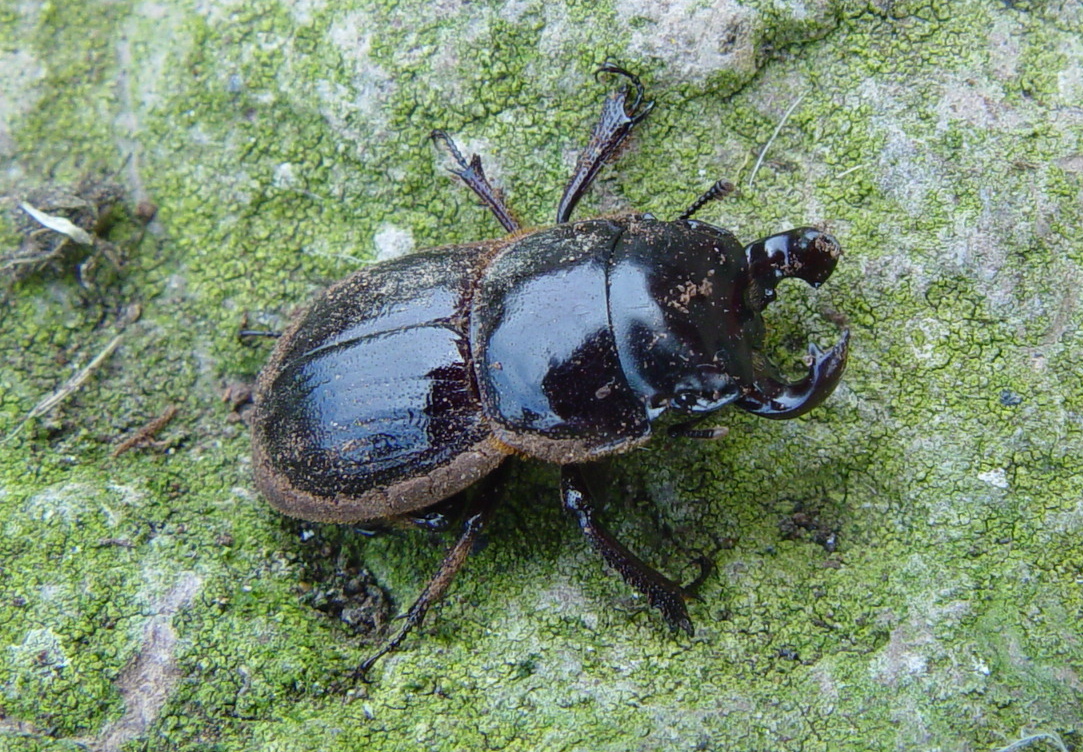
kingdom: Animalia
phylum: Arthropoda
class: Insecta
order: Coleoptera
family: Lucanidae
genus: Geodorcus
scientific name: Geodorcus sororum
